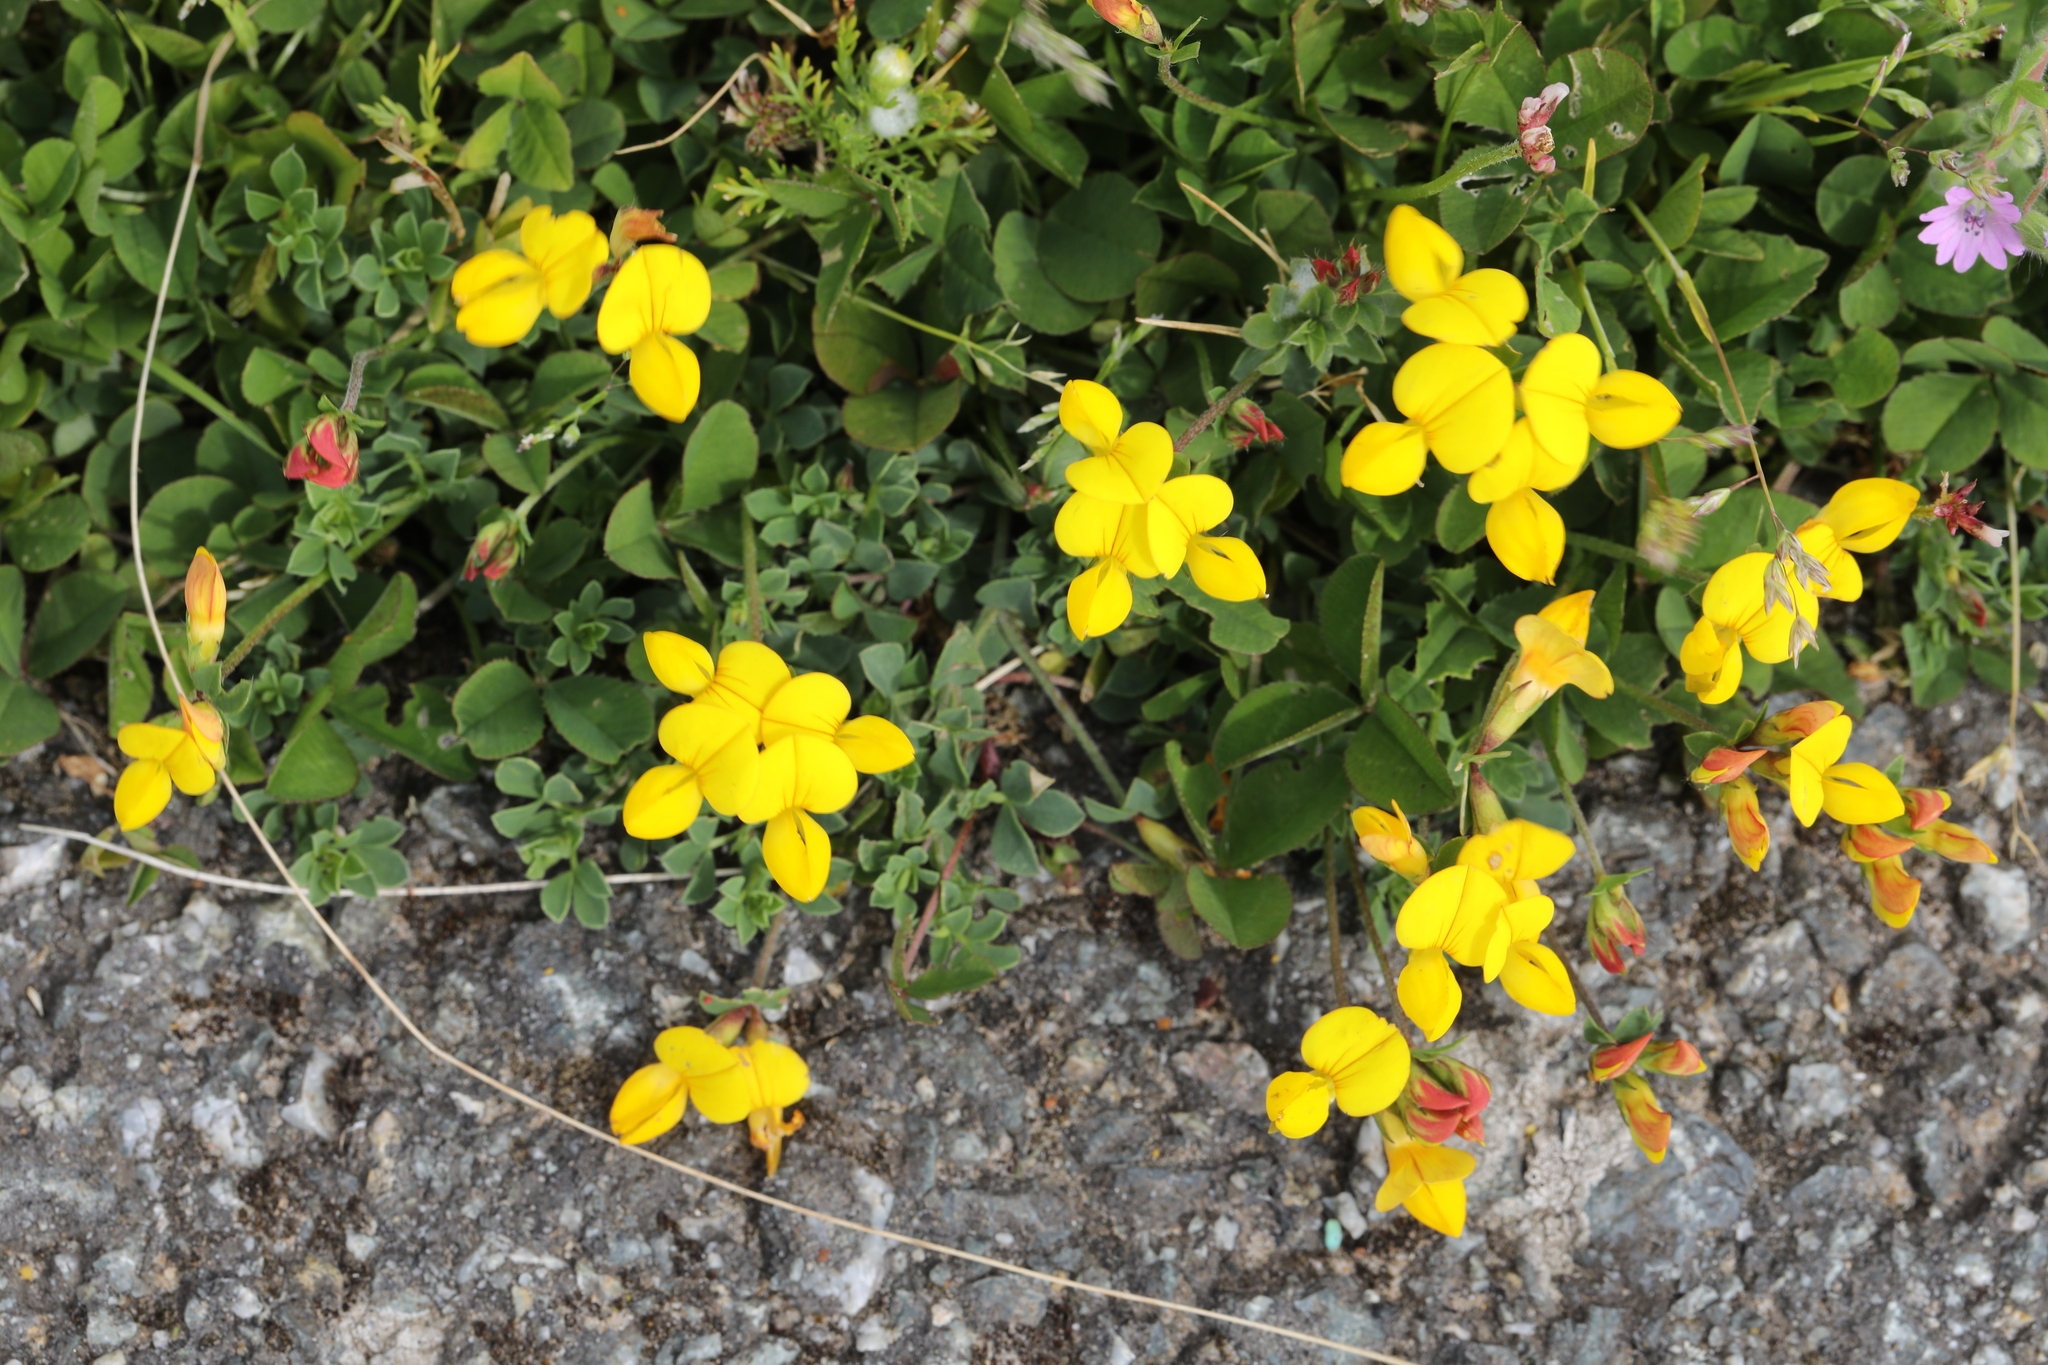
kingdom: Plantae
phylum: Tracheophyta
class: Magnoliopsida
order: Fabales
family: Fabaceae
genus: Lotus
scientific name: Lotus corniculatus
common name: Common bird's-foot-trefoil
